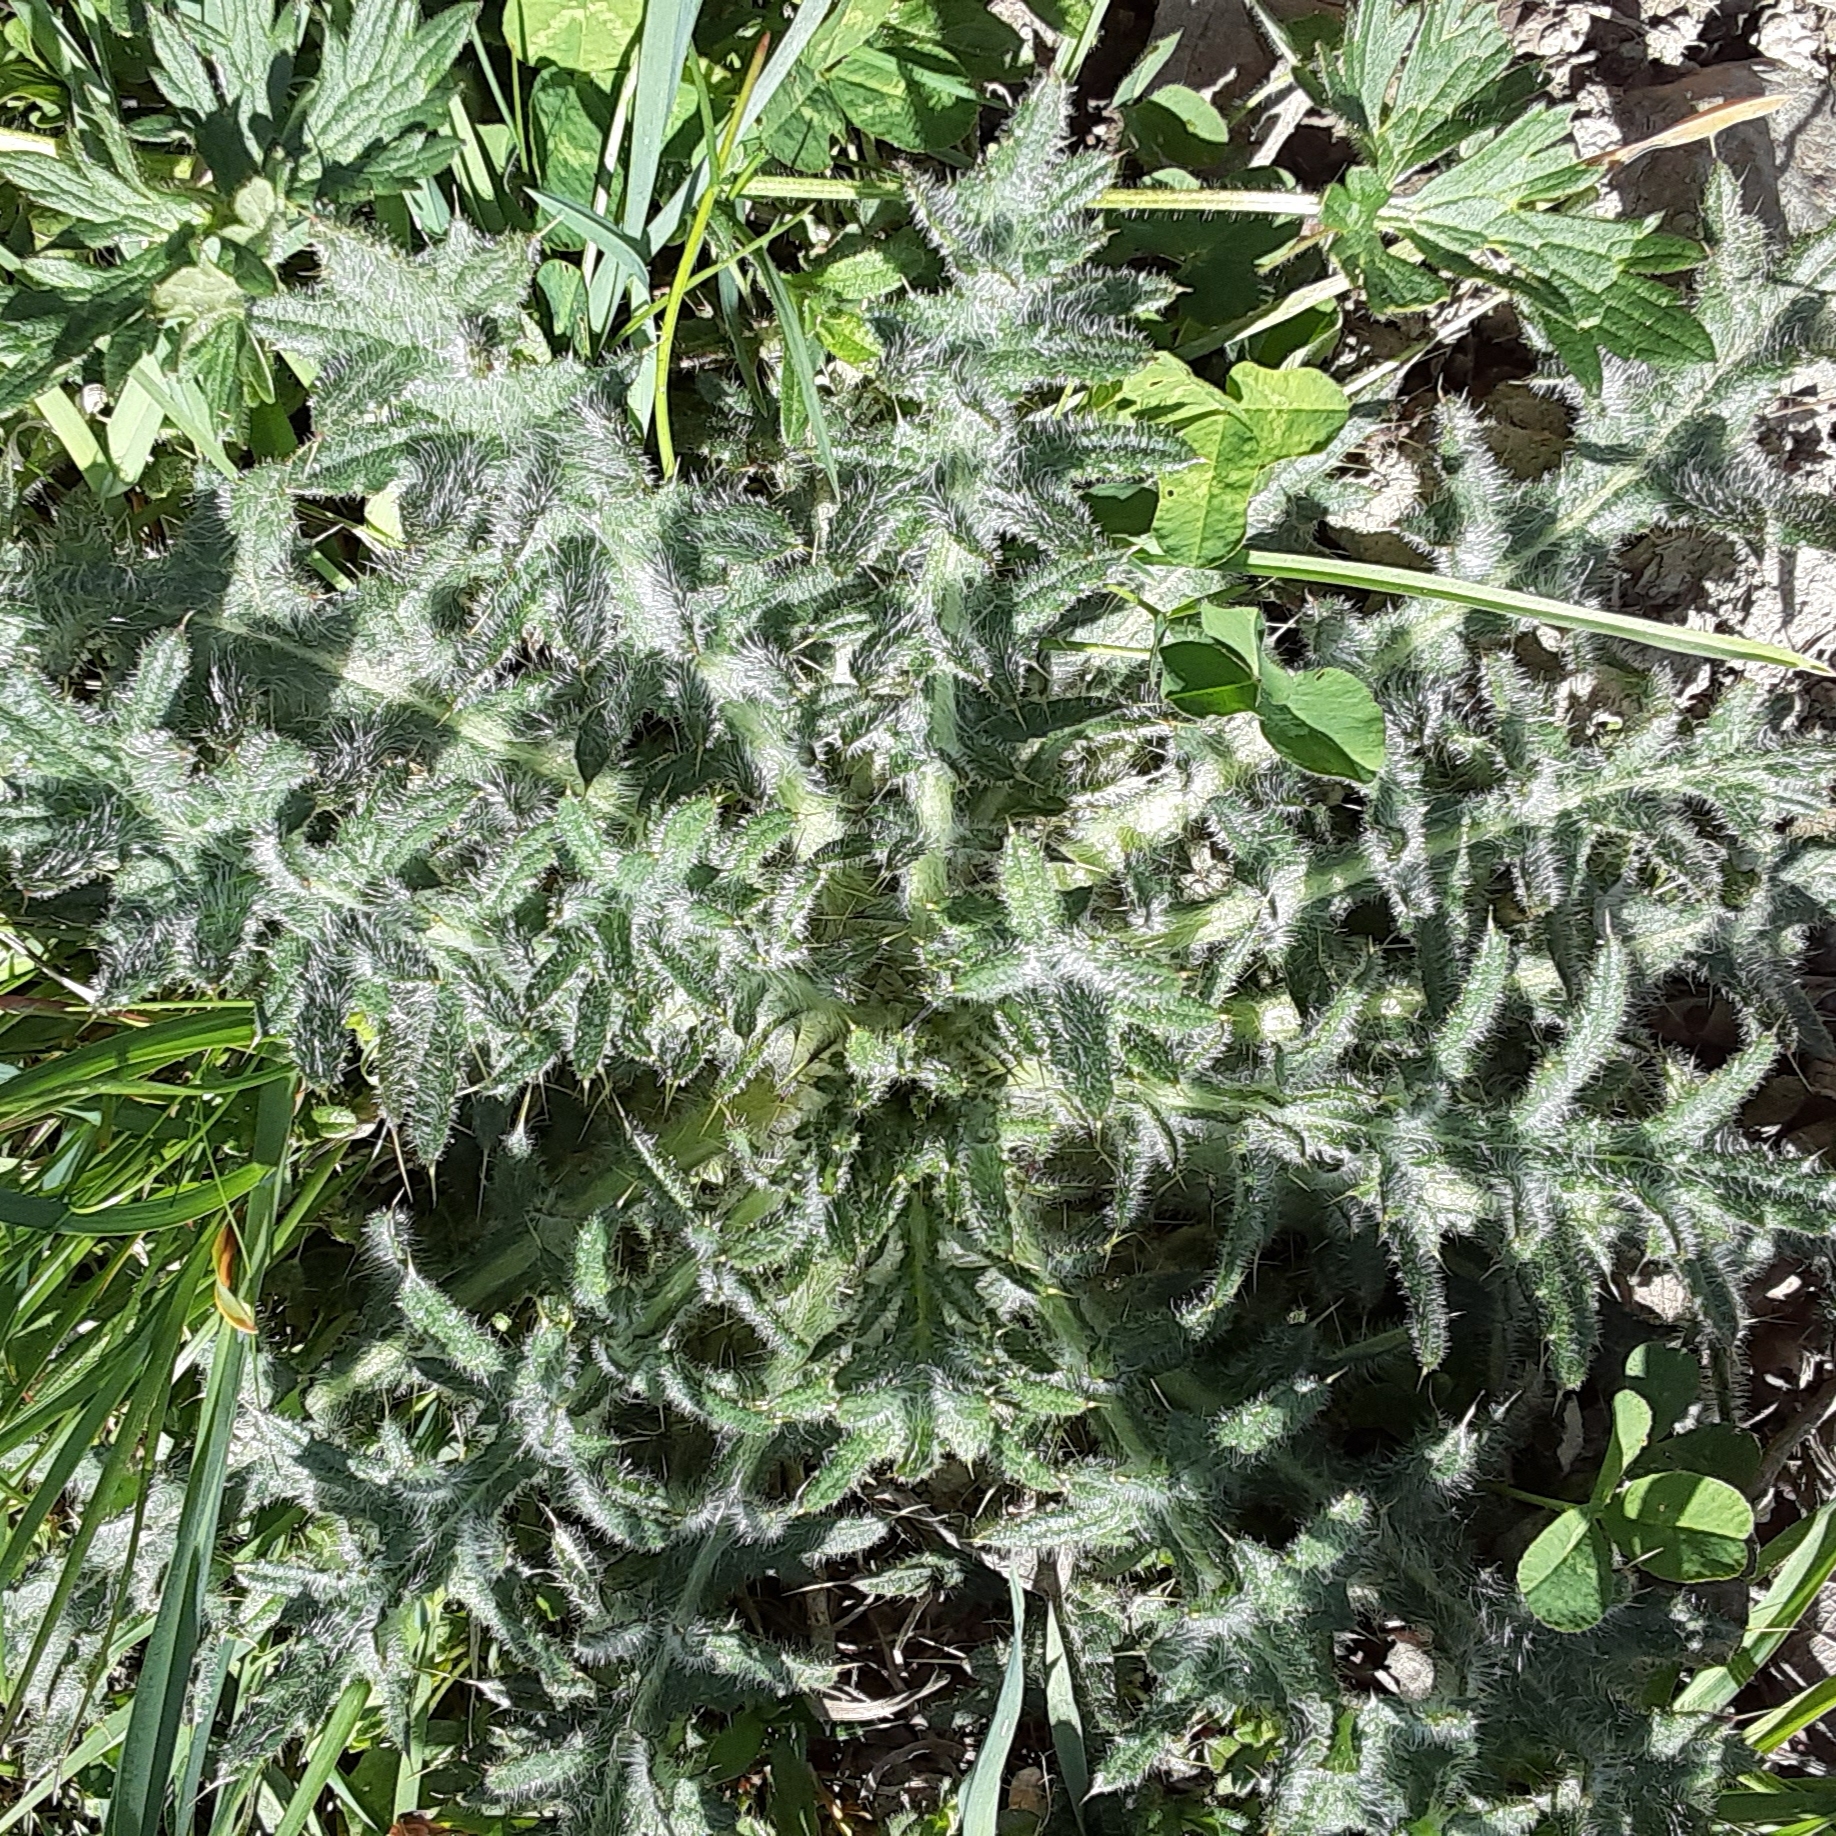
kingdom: Plantae
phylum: Tracheophyta
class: Magnoliopsida
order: Asterales
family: Asteraceae
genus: Cirsium
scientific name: Cirsium vulgare
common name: Bull thistle
